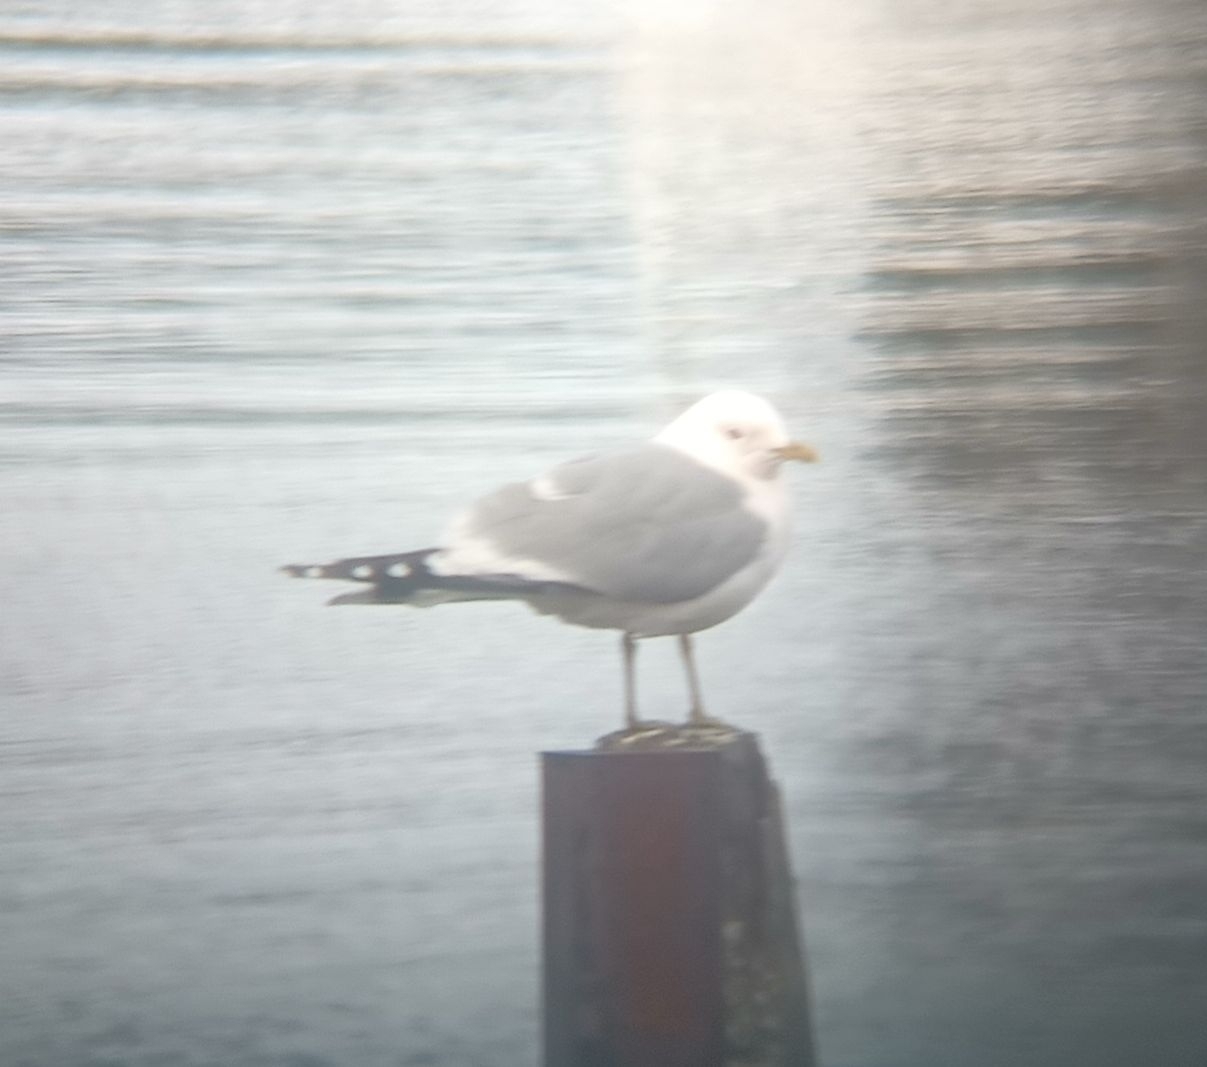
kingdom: Animalia
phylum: Chordata
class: Aves
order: Charadriiformes
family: Laridae
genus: Larus
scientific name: Larus canus
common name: Mew gull
